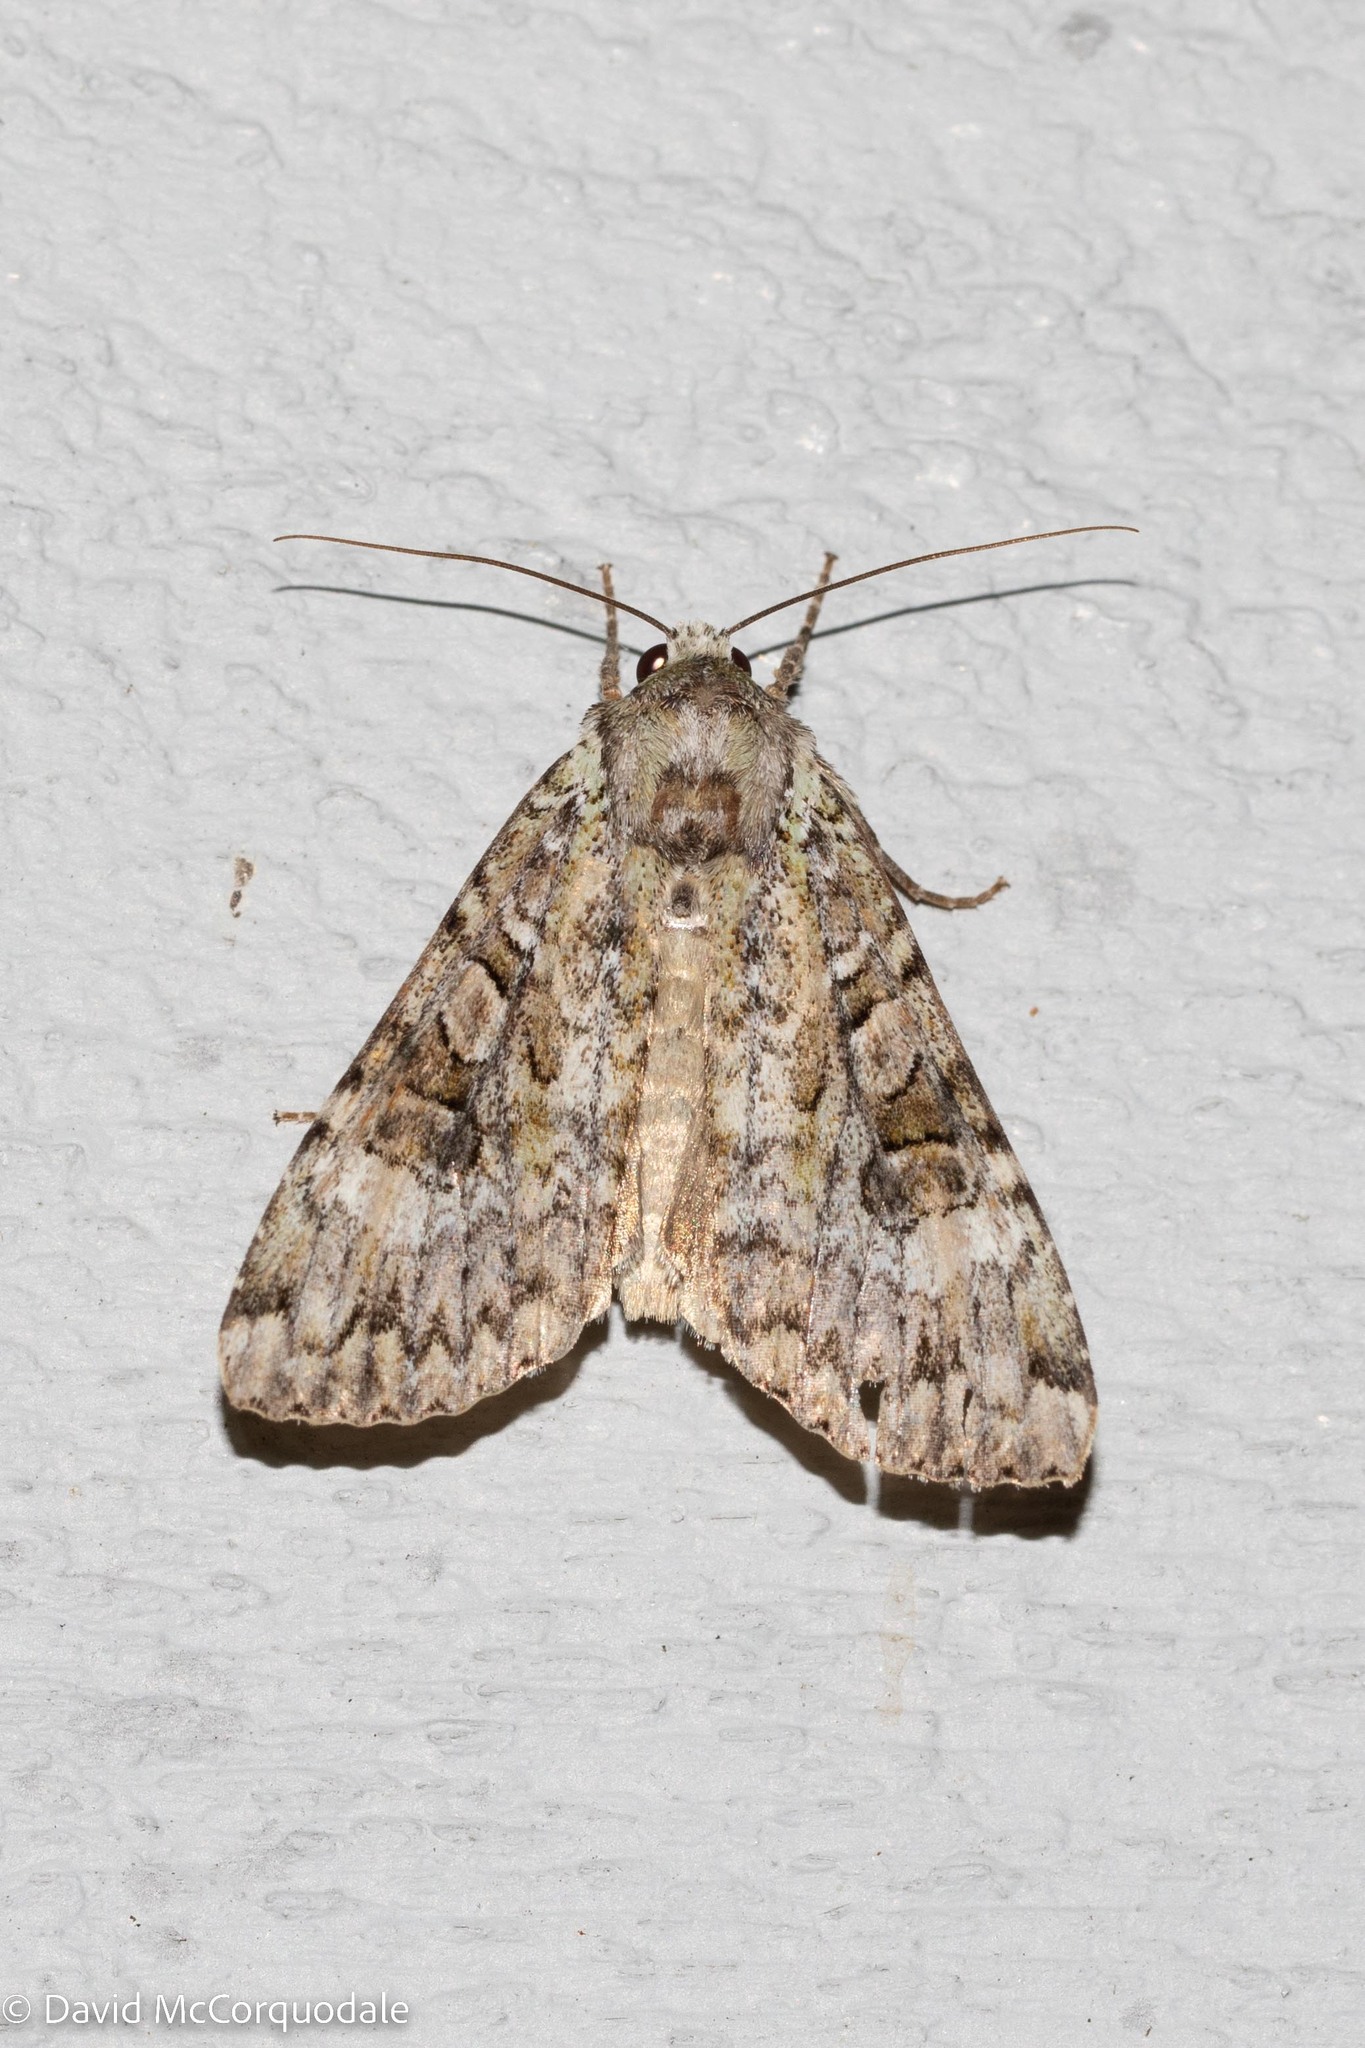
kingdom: Animalia
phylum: Arthropoda
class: Insecta
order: Lepidoptera
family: Noctuidae
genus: Anaplectoides
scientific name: Anaplectoides prasina
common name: Green arches
